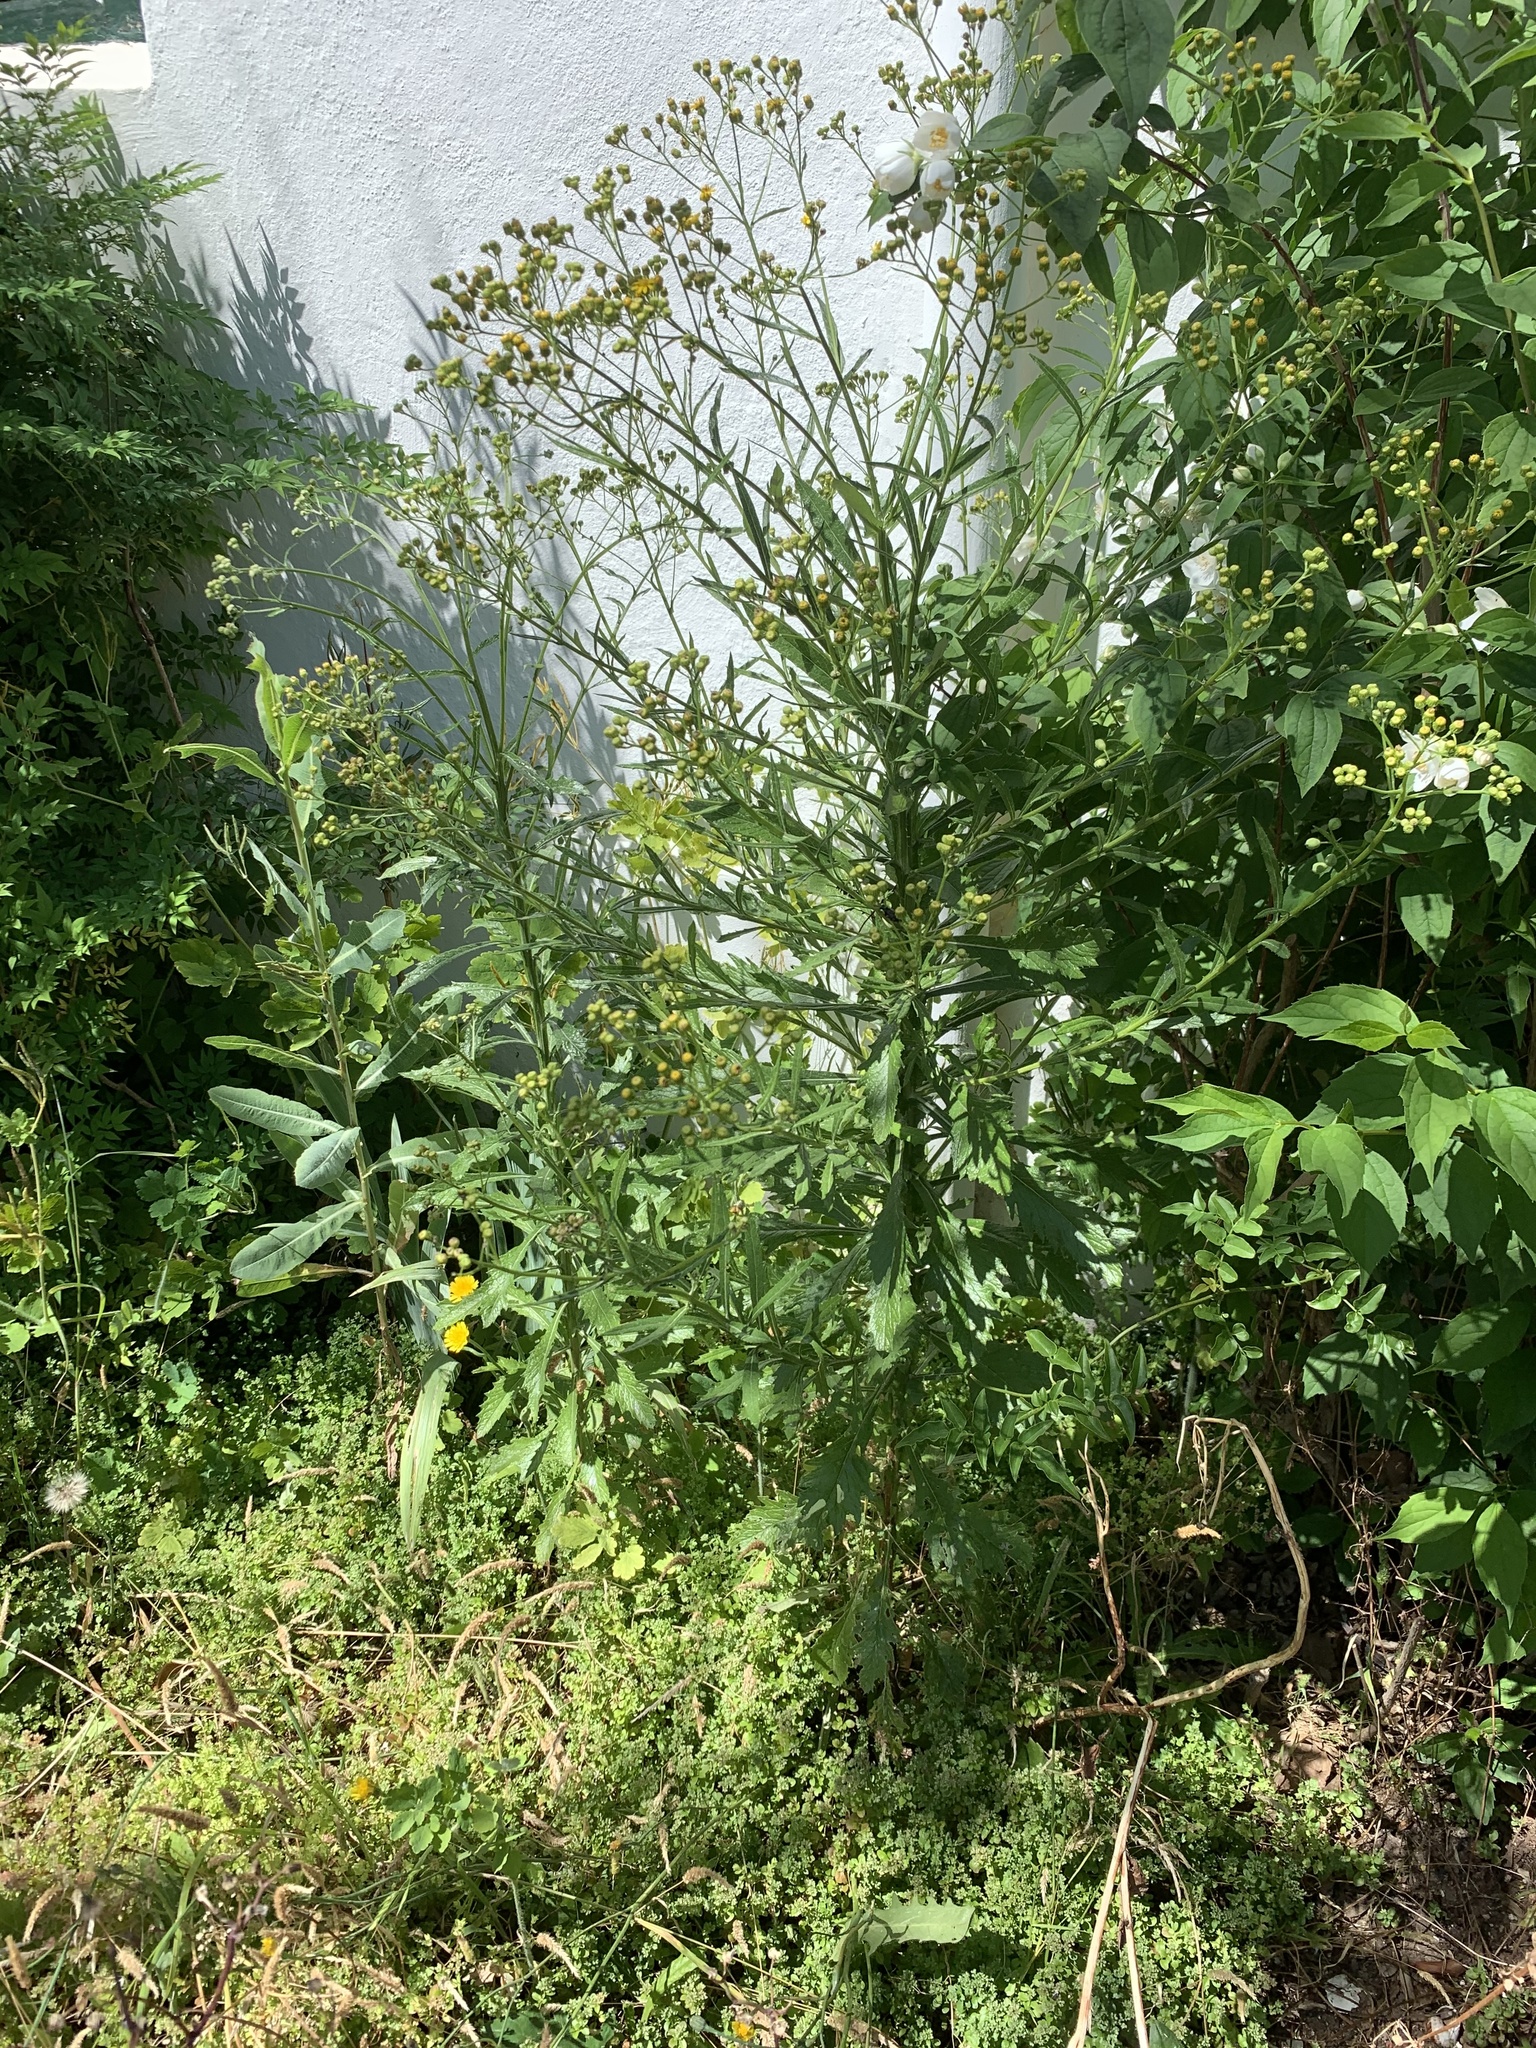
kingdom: Plantae
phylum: Tracheophyta
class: Magnoliopsida
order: Asterales
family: Asteraceae
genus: Senecio
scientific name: Senecio pterophorus
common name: Shoddy ragwort
